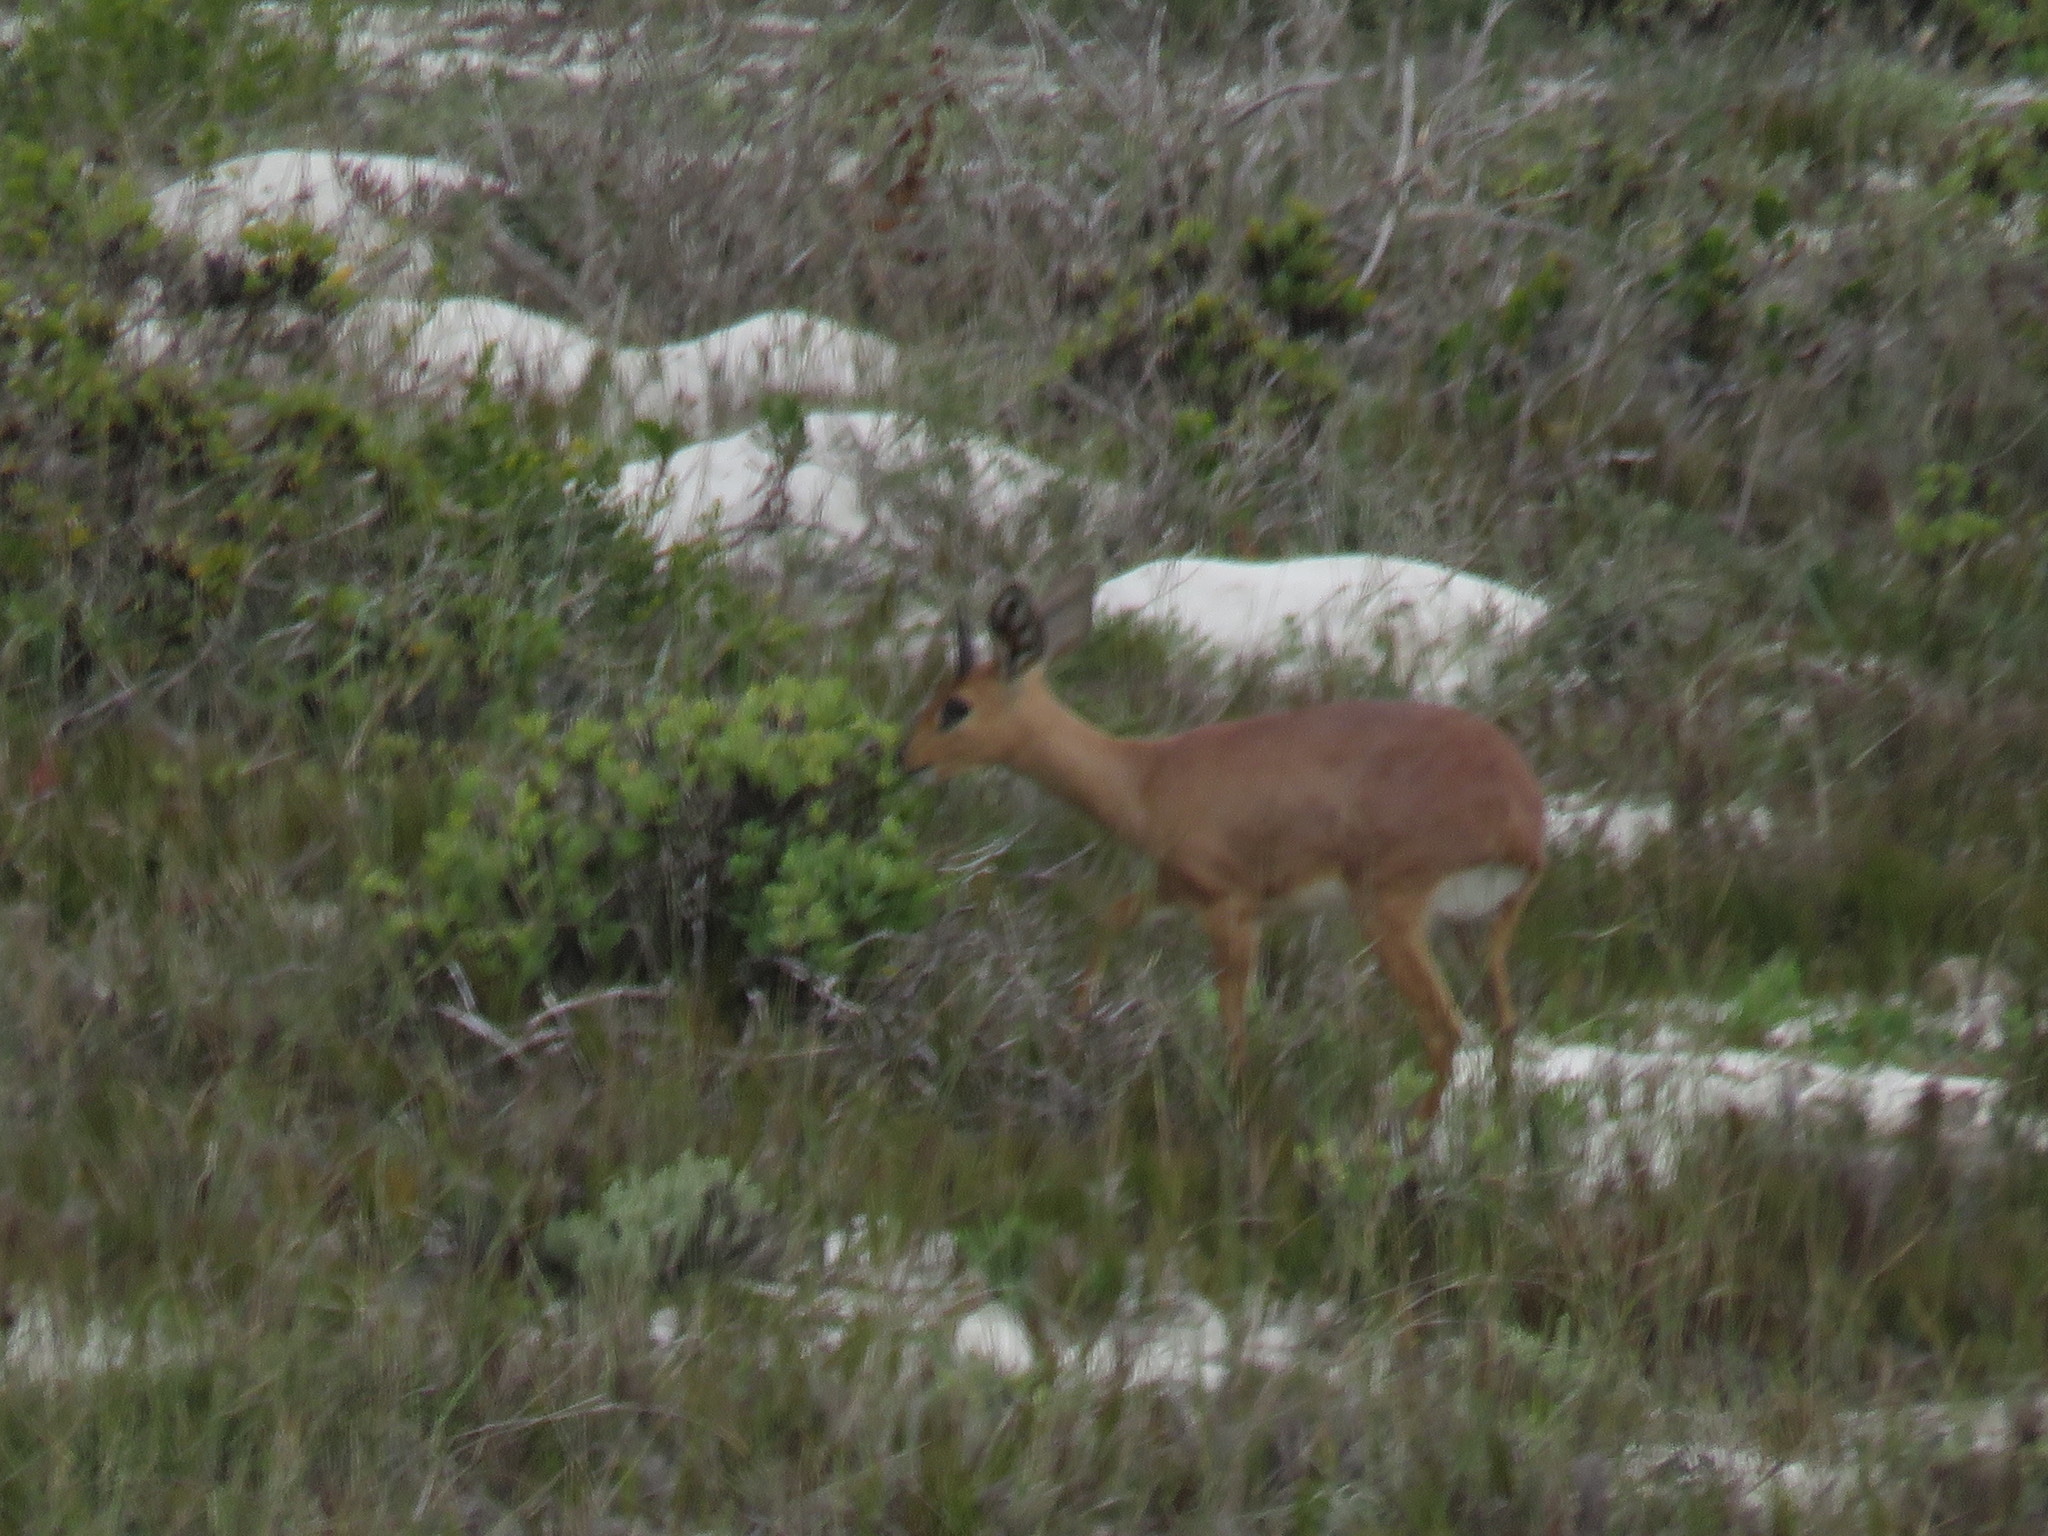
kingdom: Animalia
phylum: Chordata
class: Mammalia
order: Artiodactyla
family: Bovidae
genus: Raphicerus
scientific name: Raphicerus campestris
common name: Steenbok
